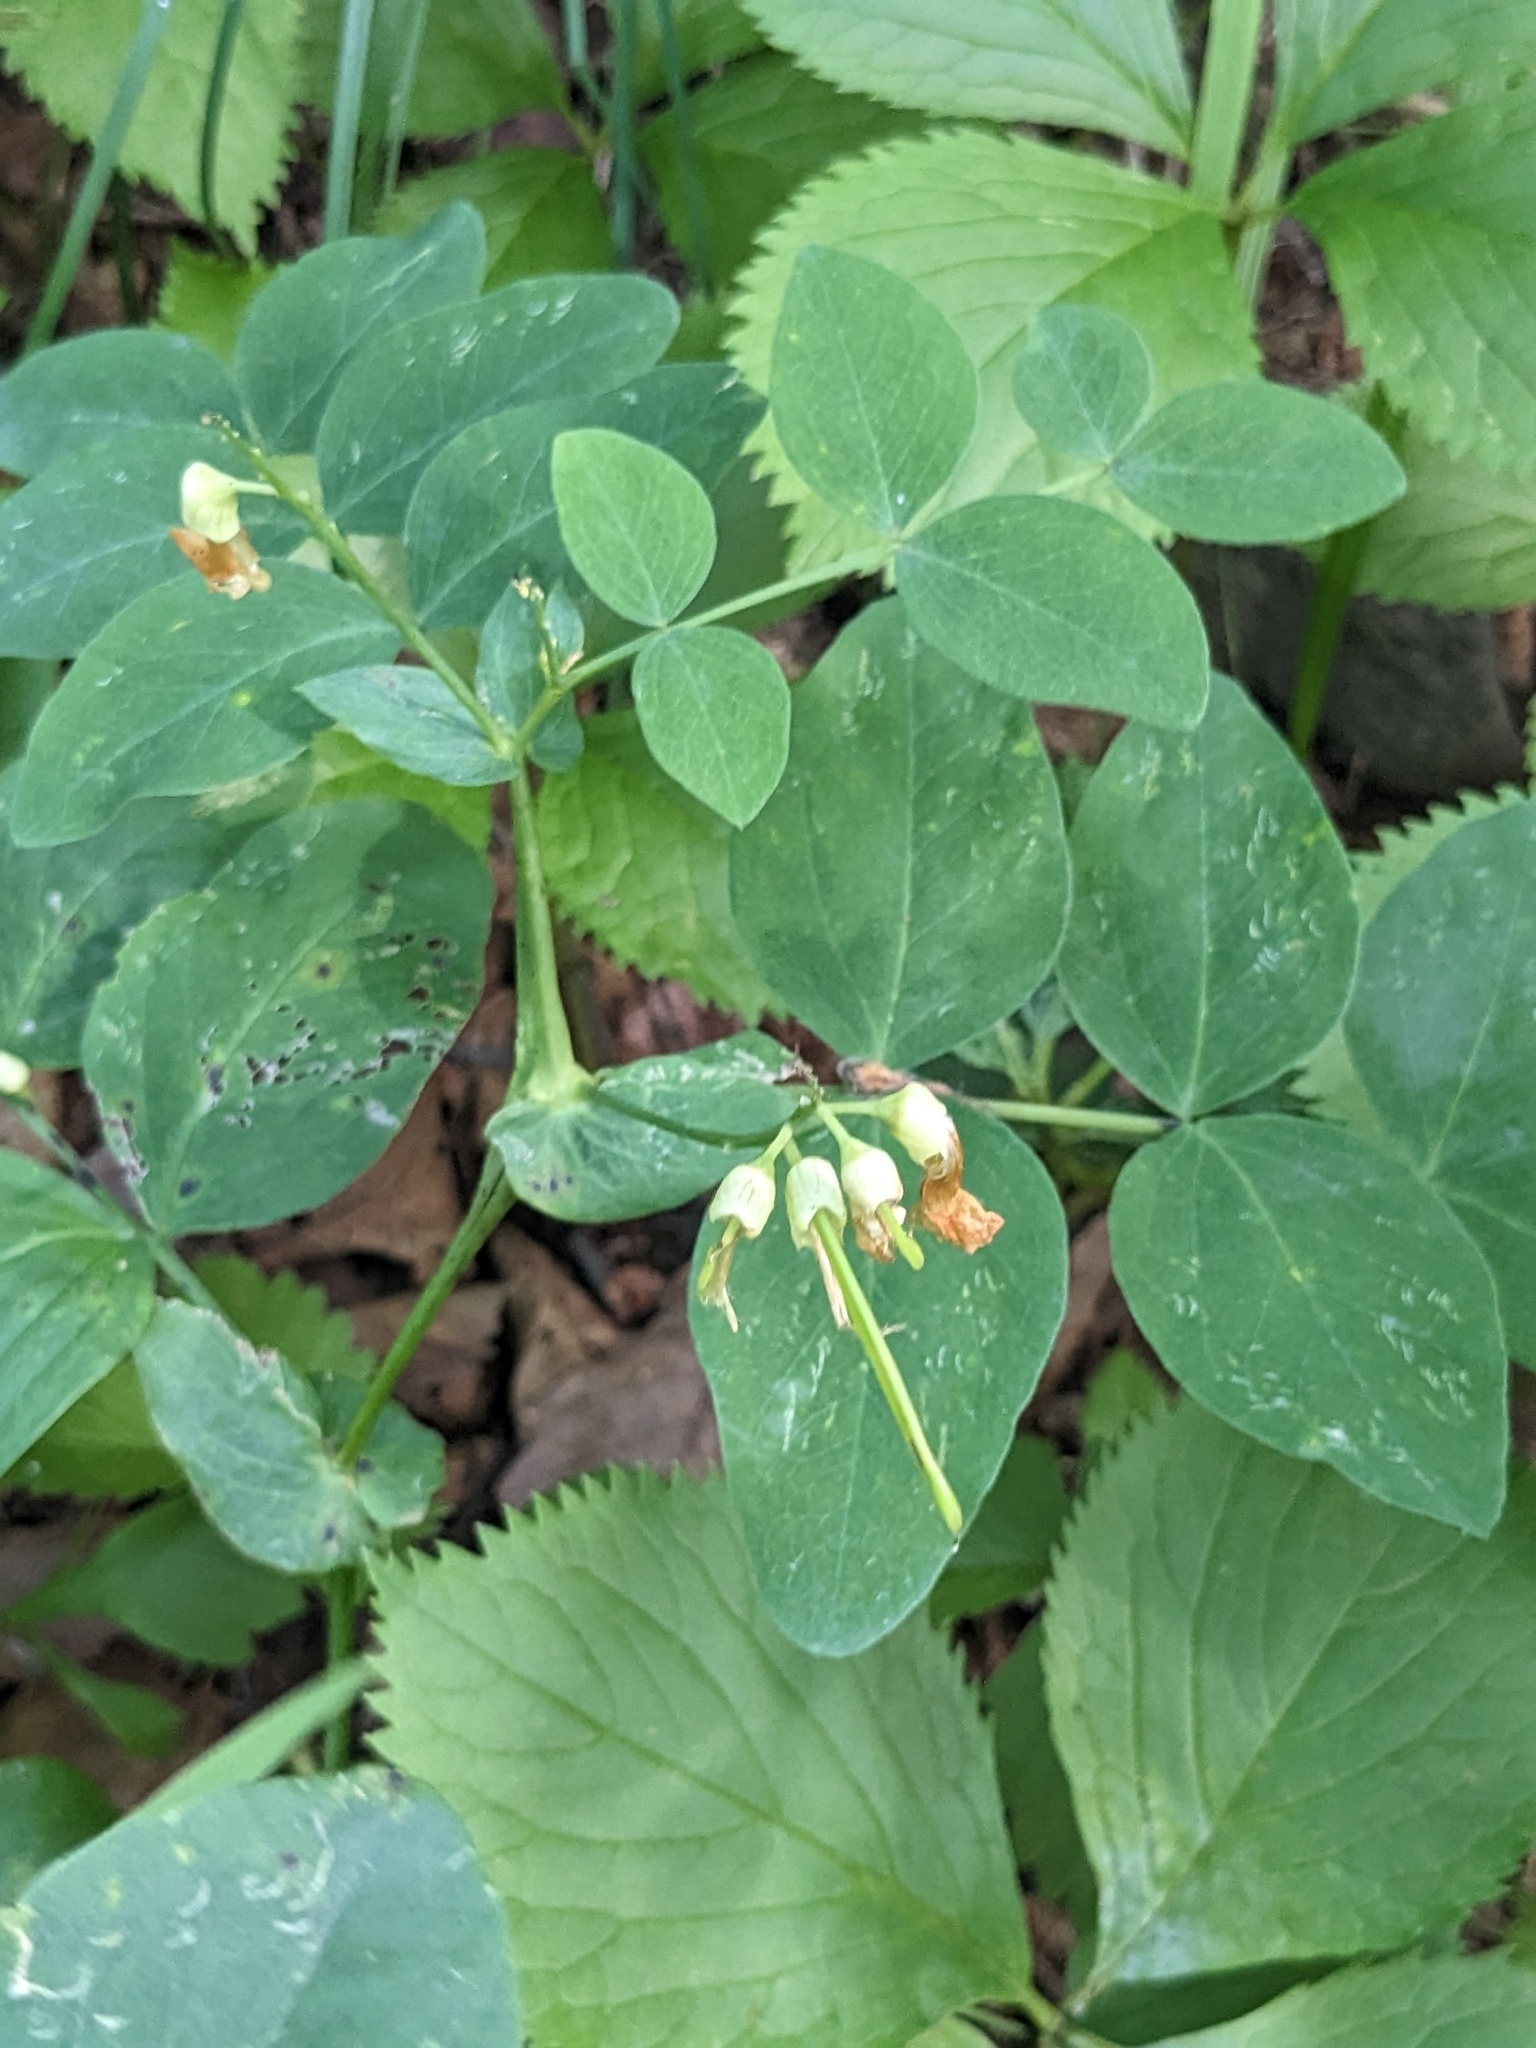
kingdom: Plantae
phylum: Tracheophyta
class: Magnoliopsida
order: Fabales
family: Fabaceae
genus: Lathyrus
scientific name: Lathyrus davidii
